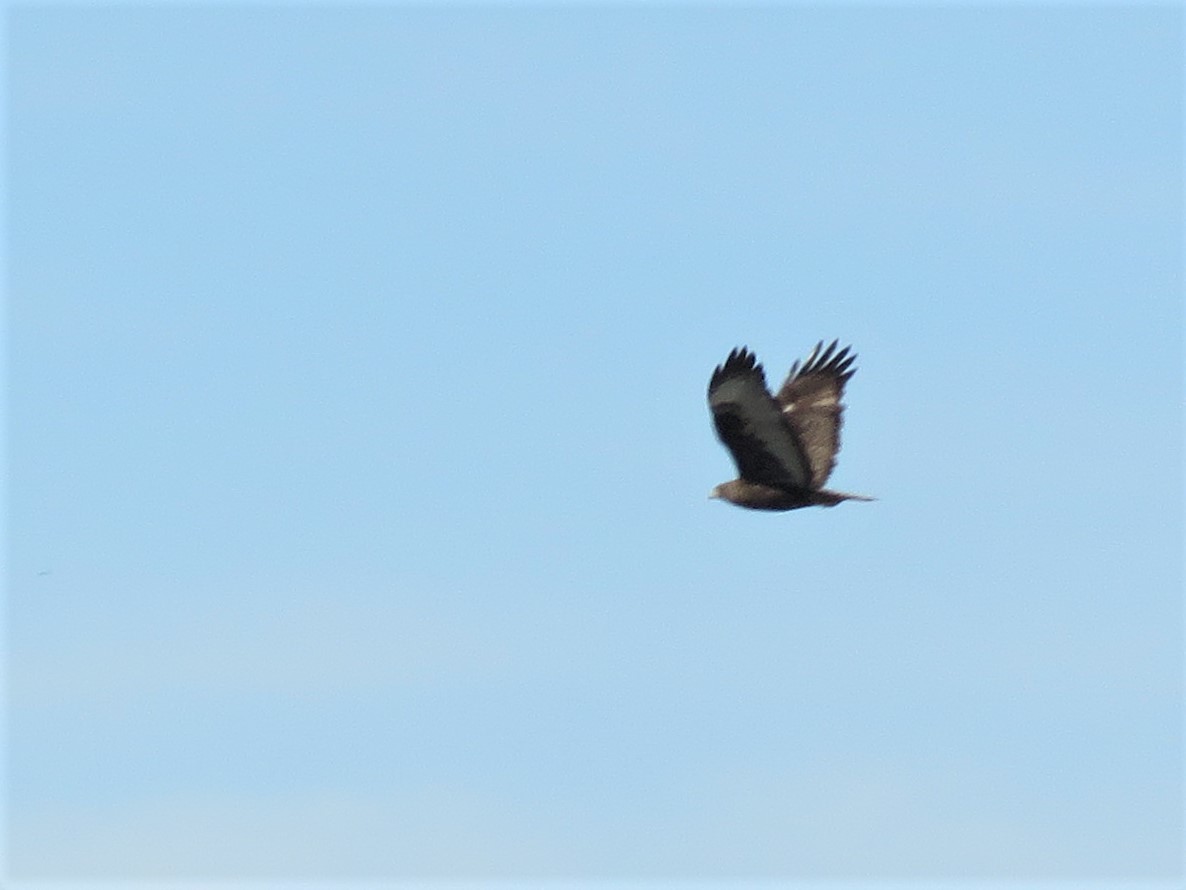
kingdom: Animalia
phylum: Chordata
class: Aves
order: Accipitriformes
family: Accipitridae
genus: Buteo
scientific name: Buteo jamaicensis
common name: Red-tailed hawk
